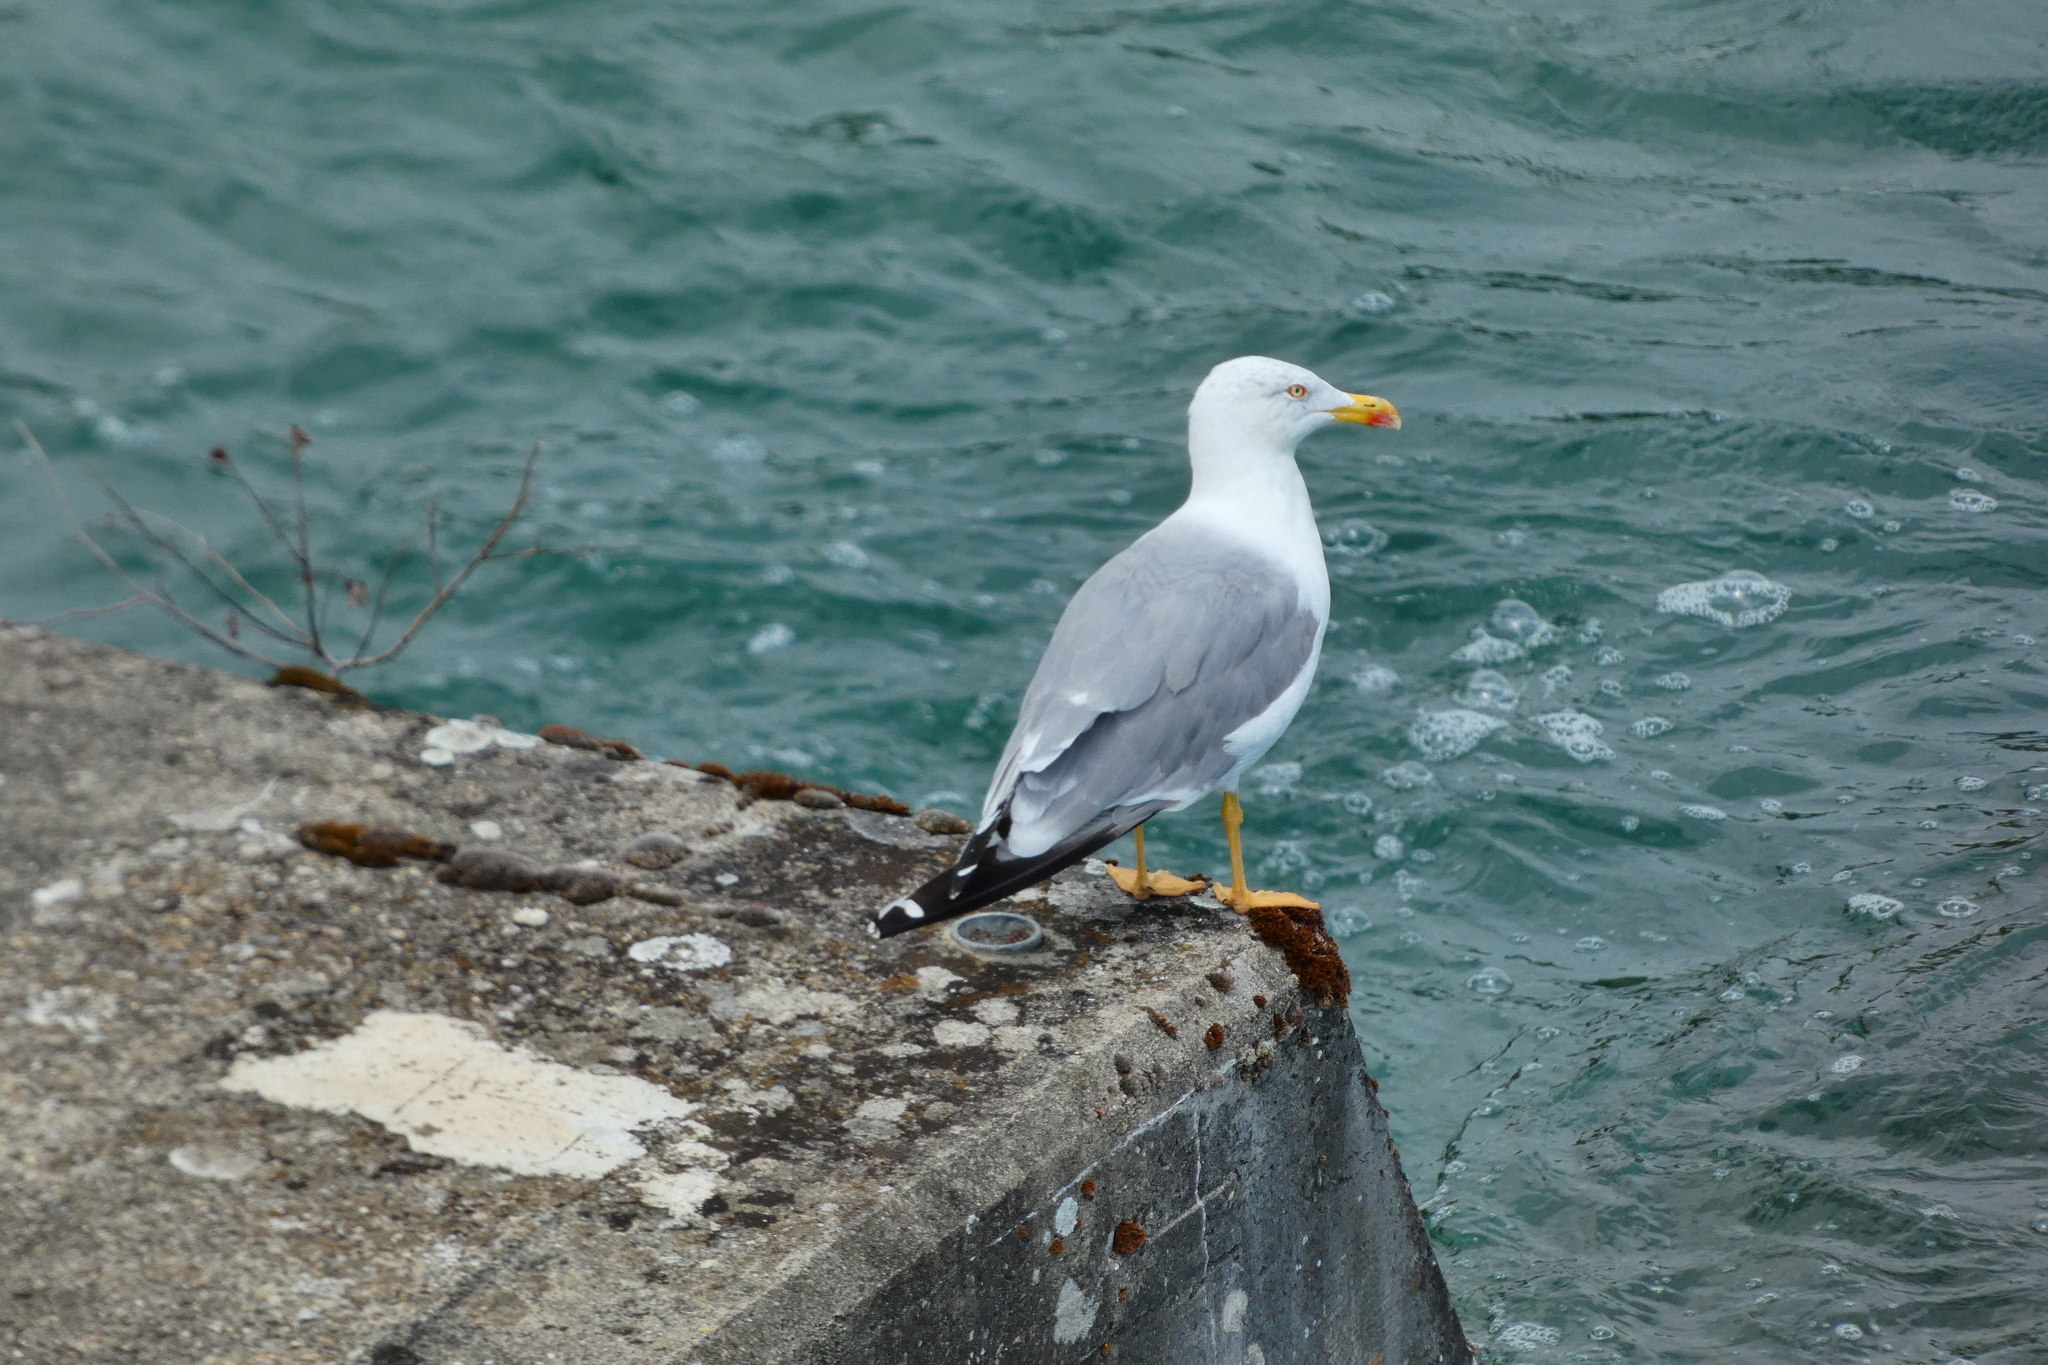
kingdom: Animalia
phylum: Chordata
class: Aves
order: Charadriiformes
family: Laridae
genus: Larus
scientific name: Larus michahellis
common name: Yellow-legged gull
